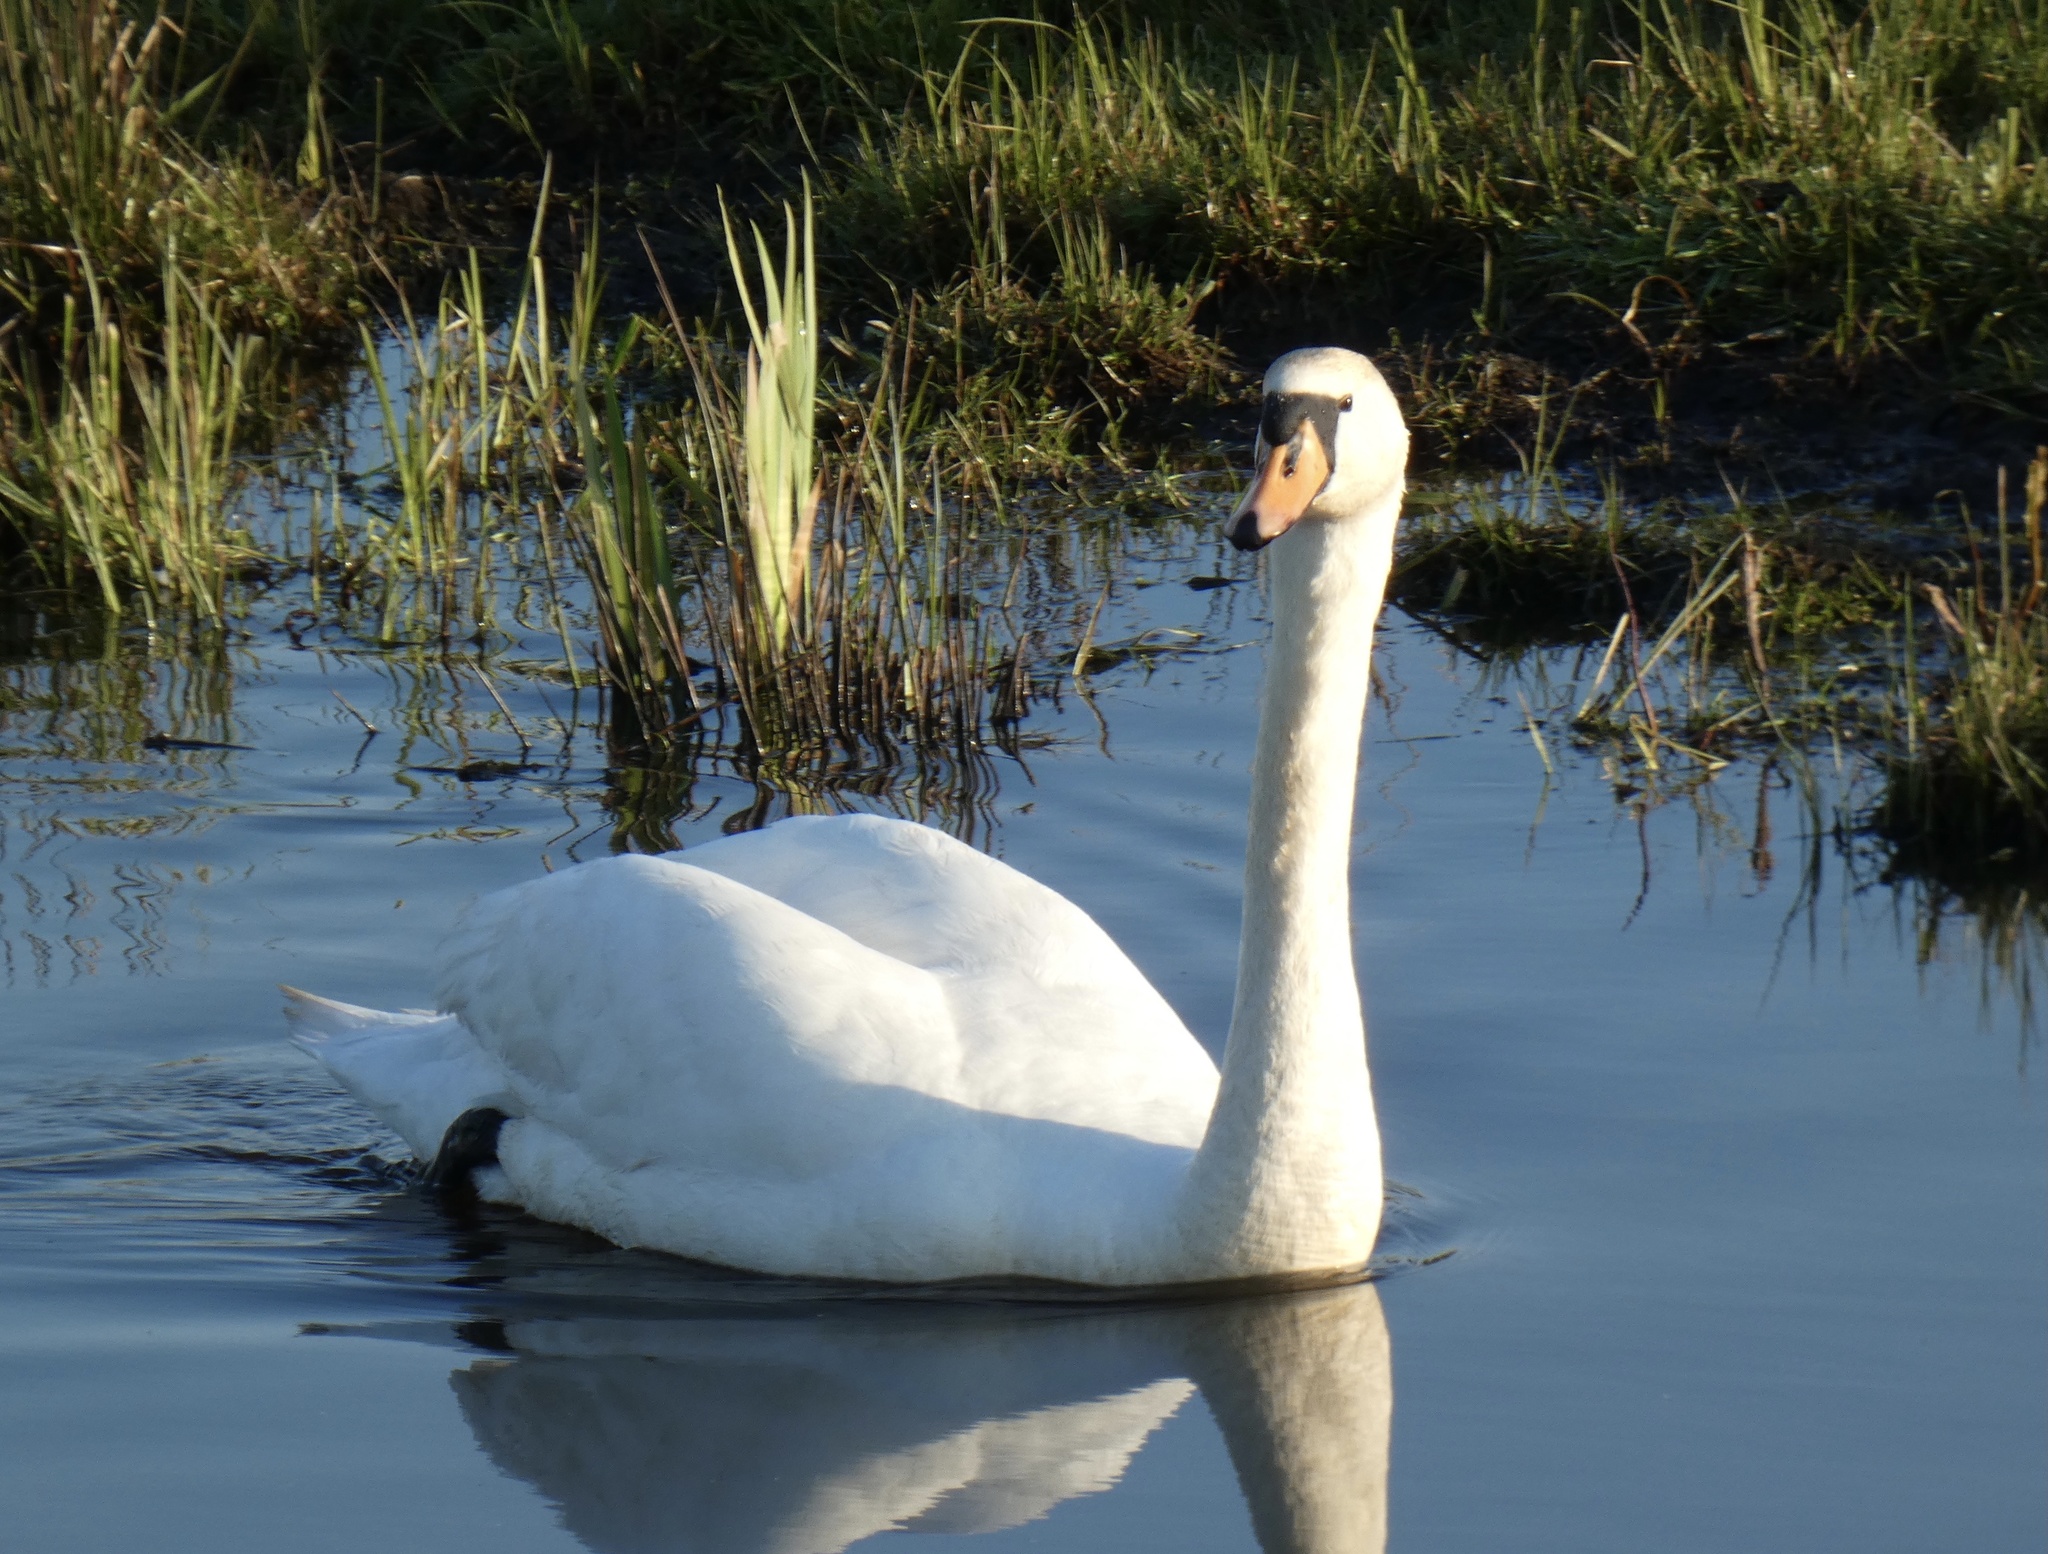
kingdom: Animalia
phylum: Chordata
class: Aves
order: Anseriformes
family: Anatidae
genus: Cygnus
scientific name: Cygnus olor
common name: Mute swan
